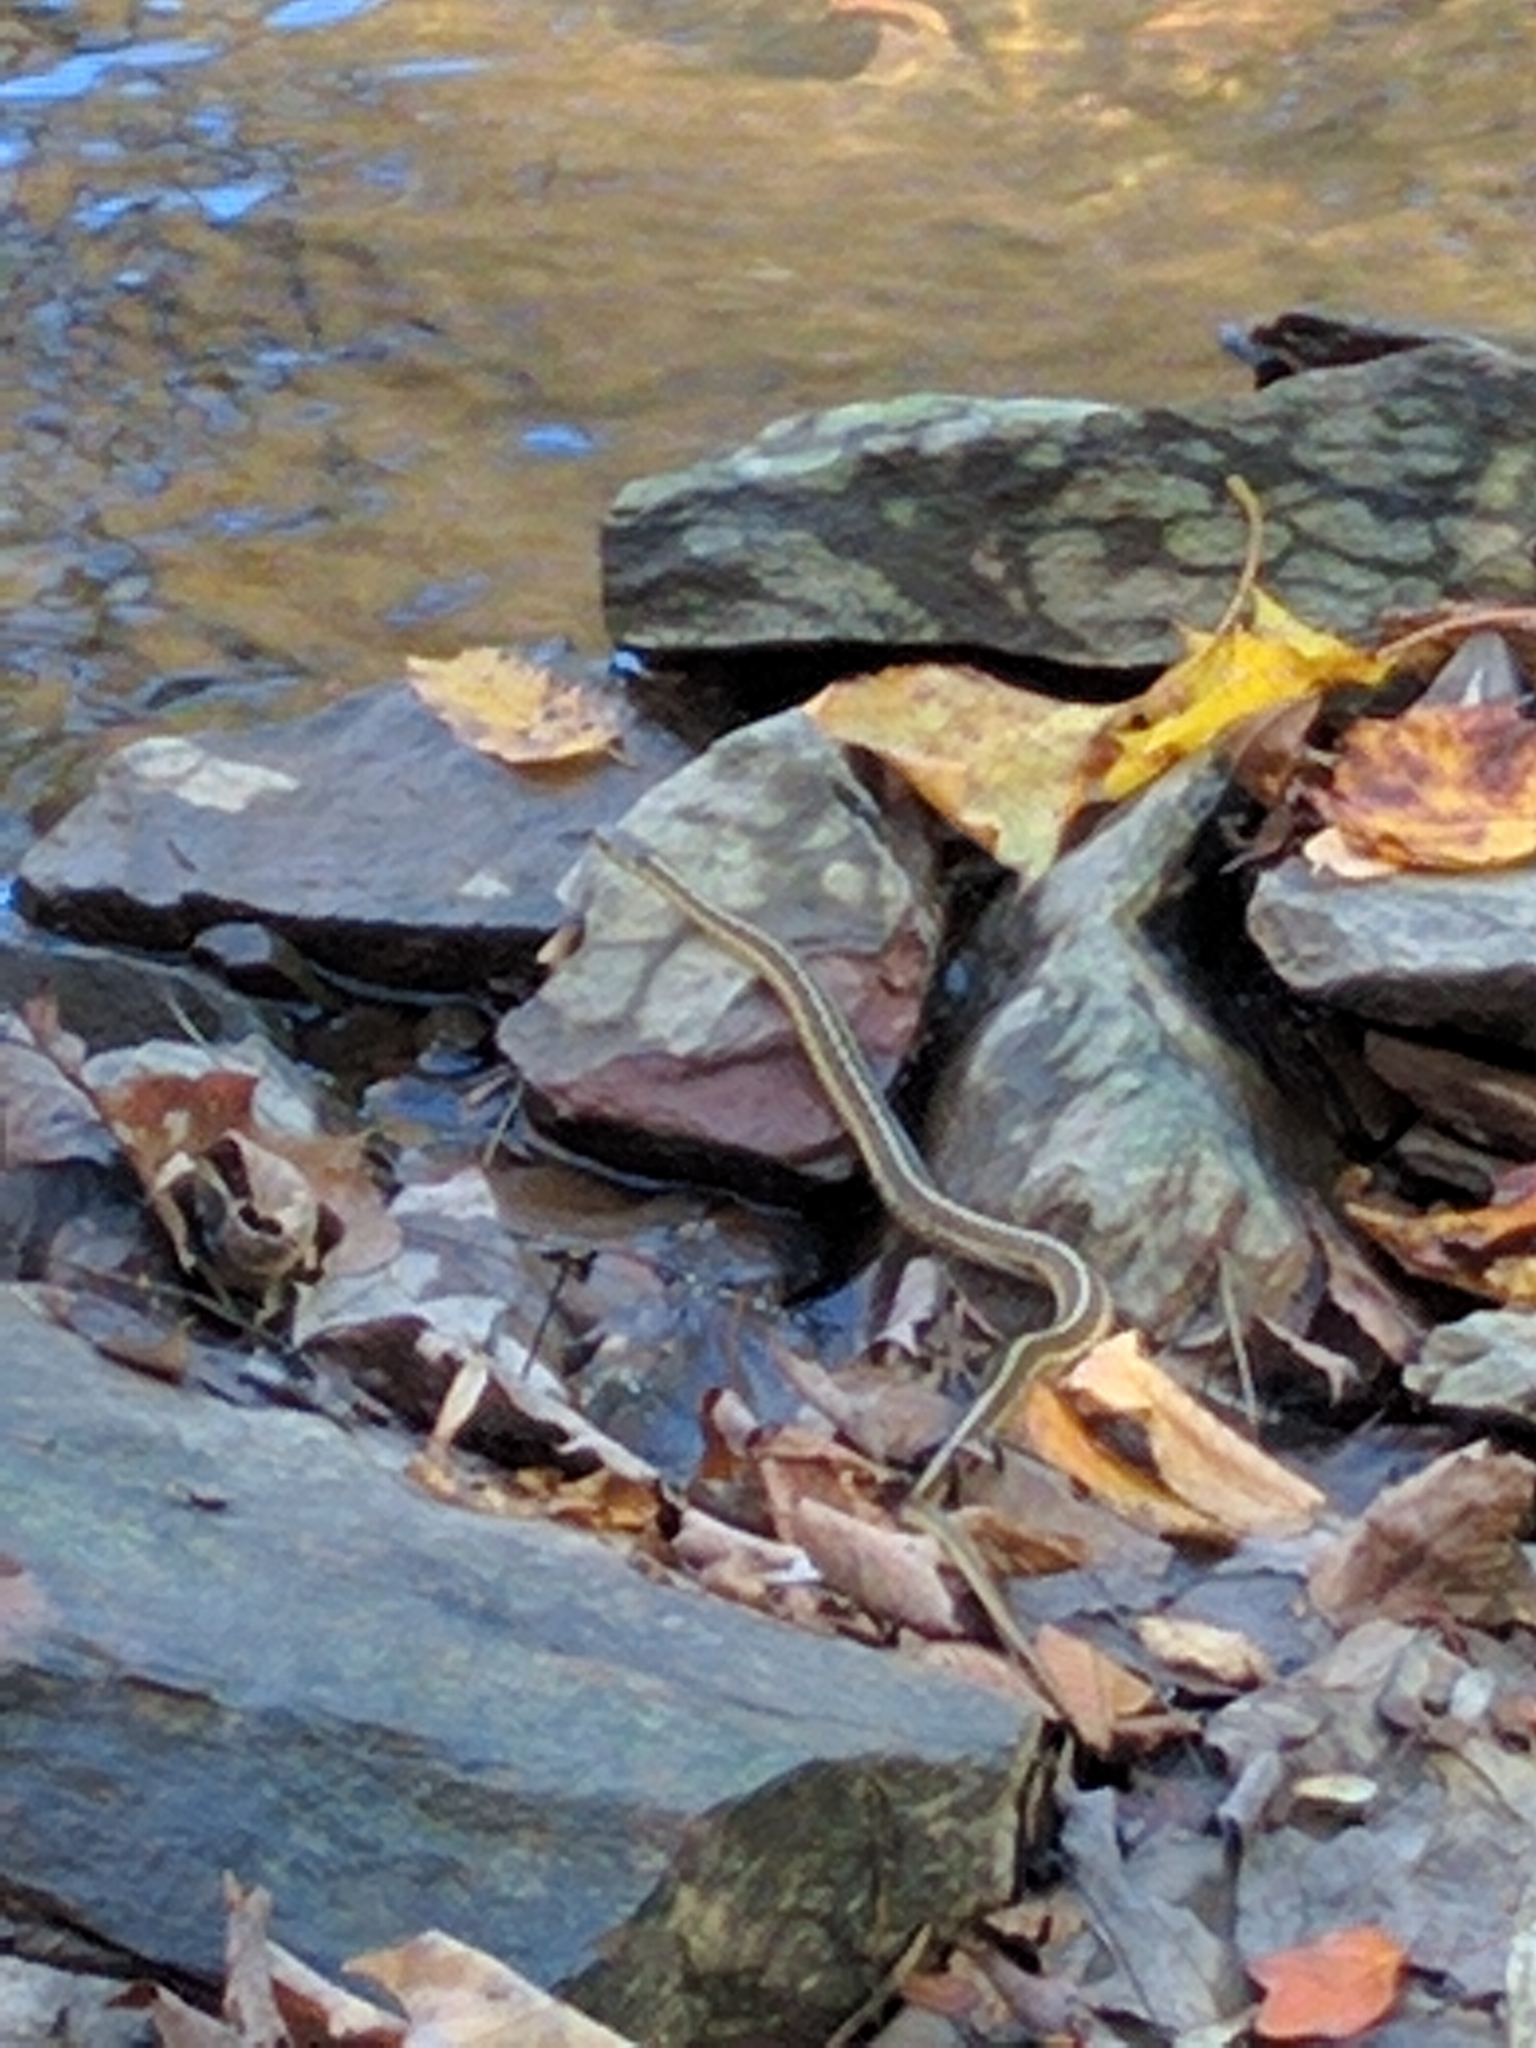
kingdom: Animalia
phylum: Chordata
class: Squamata
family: Colubridae
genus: Thamnophis
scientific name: Thamnophis sirtalis
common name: Common garter snake
